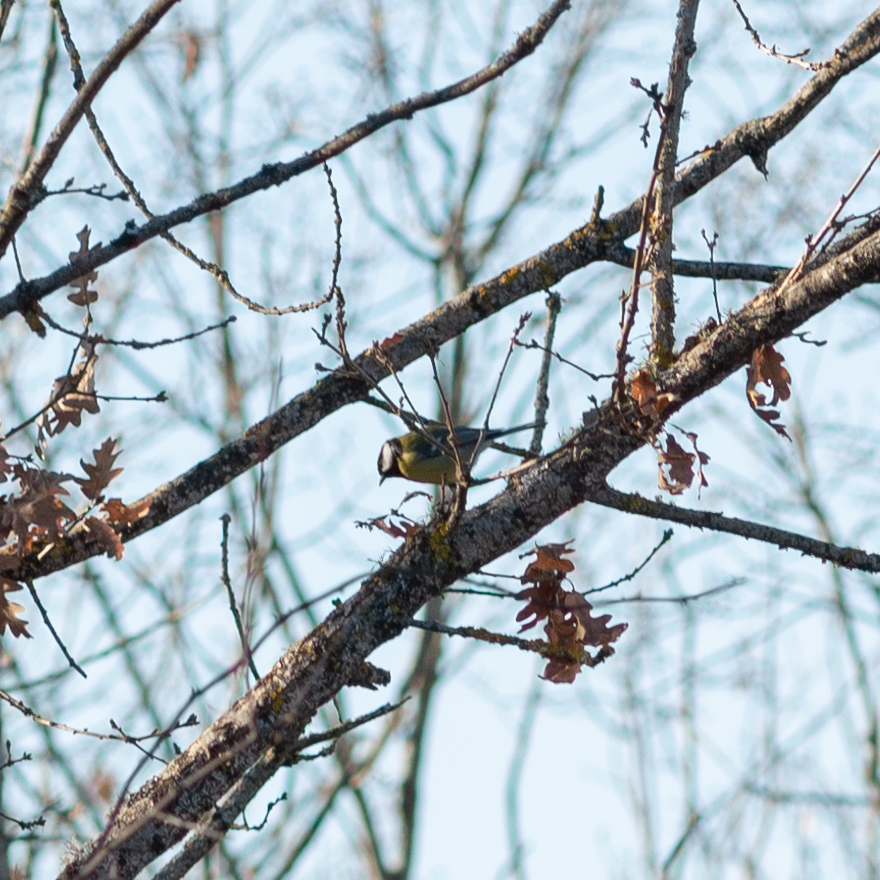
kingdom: Animalia
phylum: Chordata
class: Aves
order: Passeriformes
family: Paridae
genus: Parus
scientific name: Parus major
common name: Great tit
